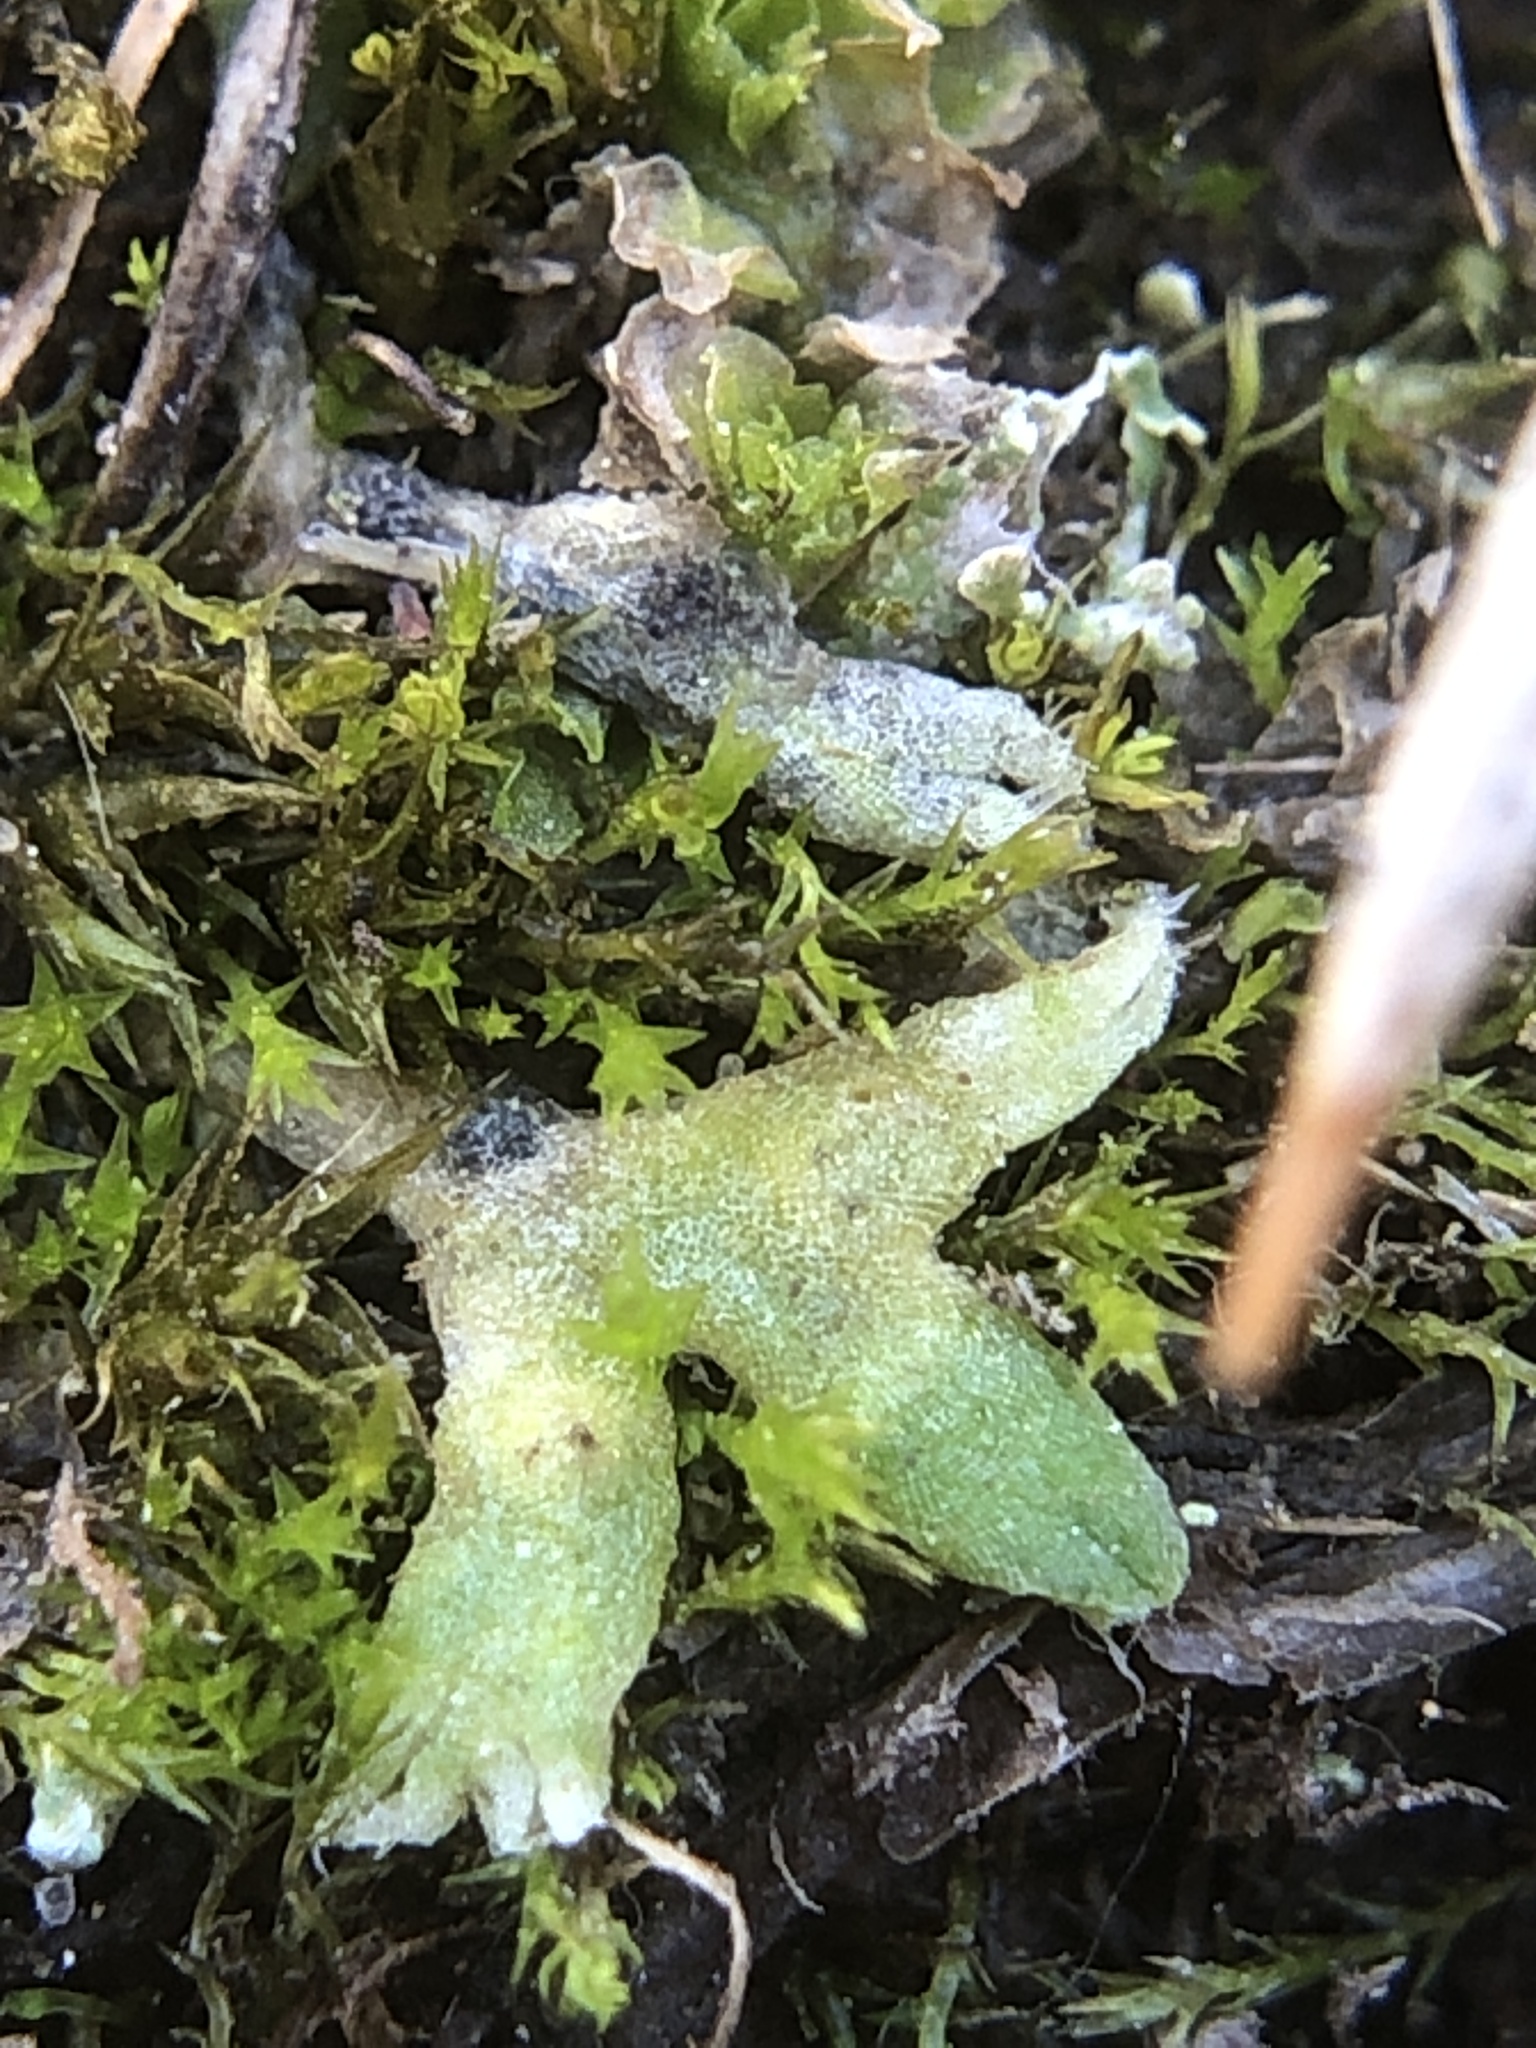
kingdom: Plantae
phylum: Bryophyta
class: Bryopsida
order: Archidiales
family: Archidiaceae
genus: Archidium
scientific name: Archidium alternifolium
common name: Clay earth-moss
